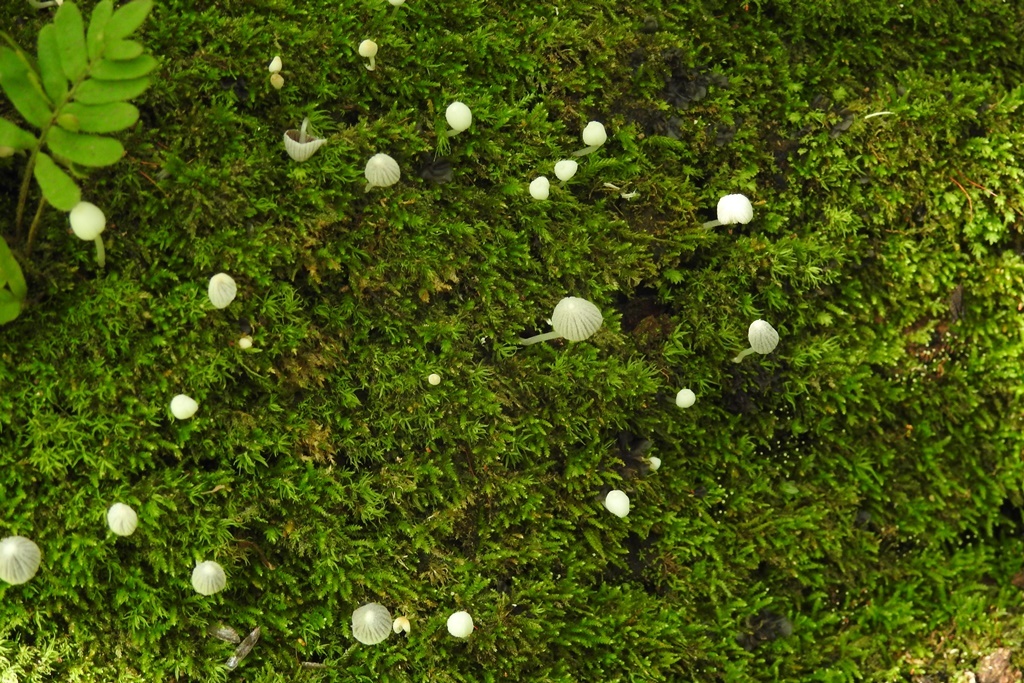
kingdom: Fungi
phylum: Basidiomycota
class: Agaricomycetes
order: Agaricales
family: Psathyrellaceae
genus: Coprinellus
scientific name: Coprinellus disseminatus
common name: Fairies' bonnets
